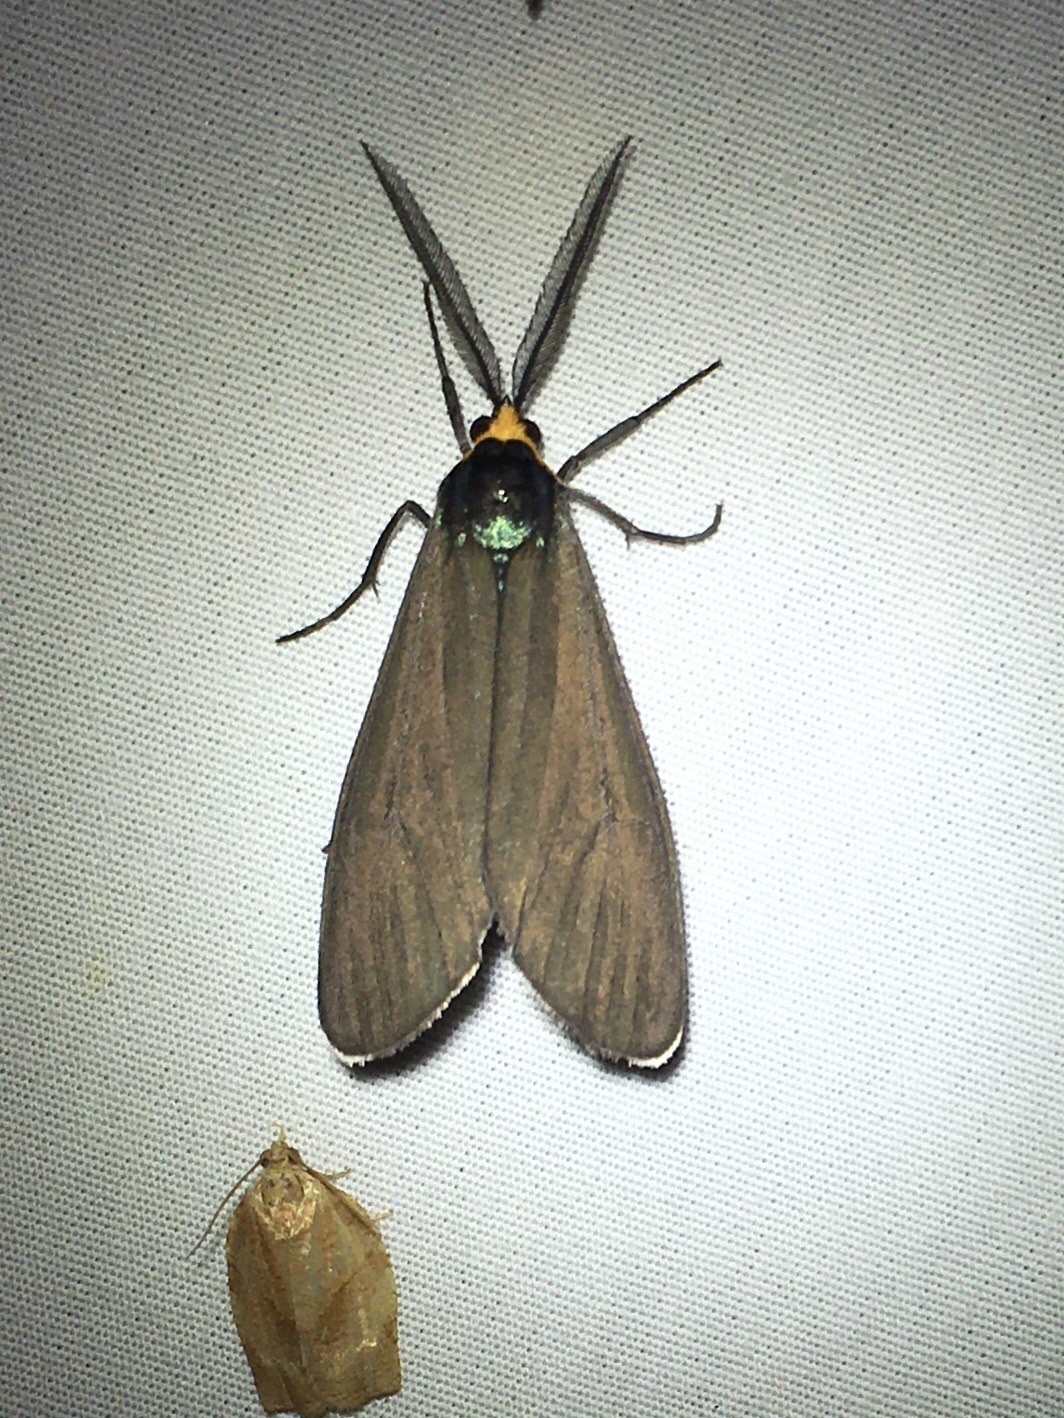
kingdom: Animalia
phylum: Arthropoda
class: Insecta
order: Lepidoptera
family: Erebidae
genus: Ctenucha
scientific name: Ctenucha virginica
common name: Virginia ctenucha moth
